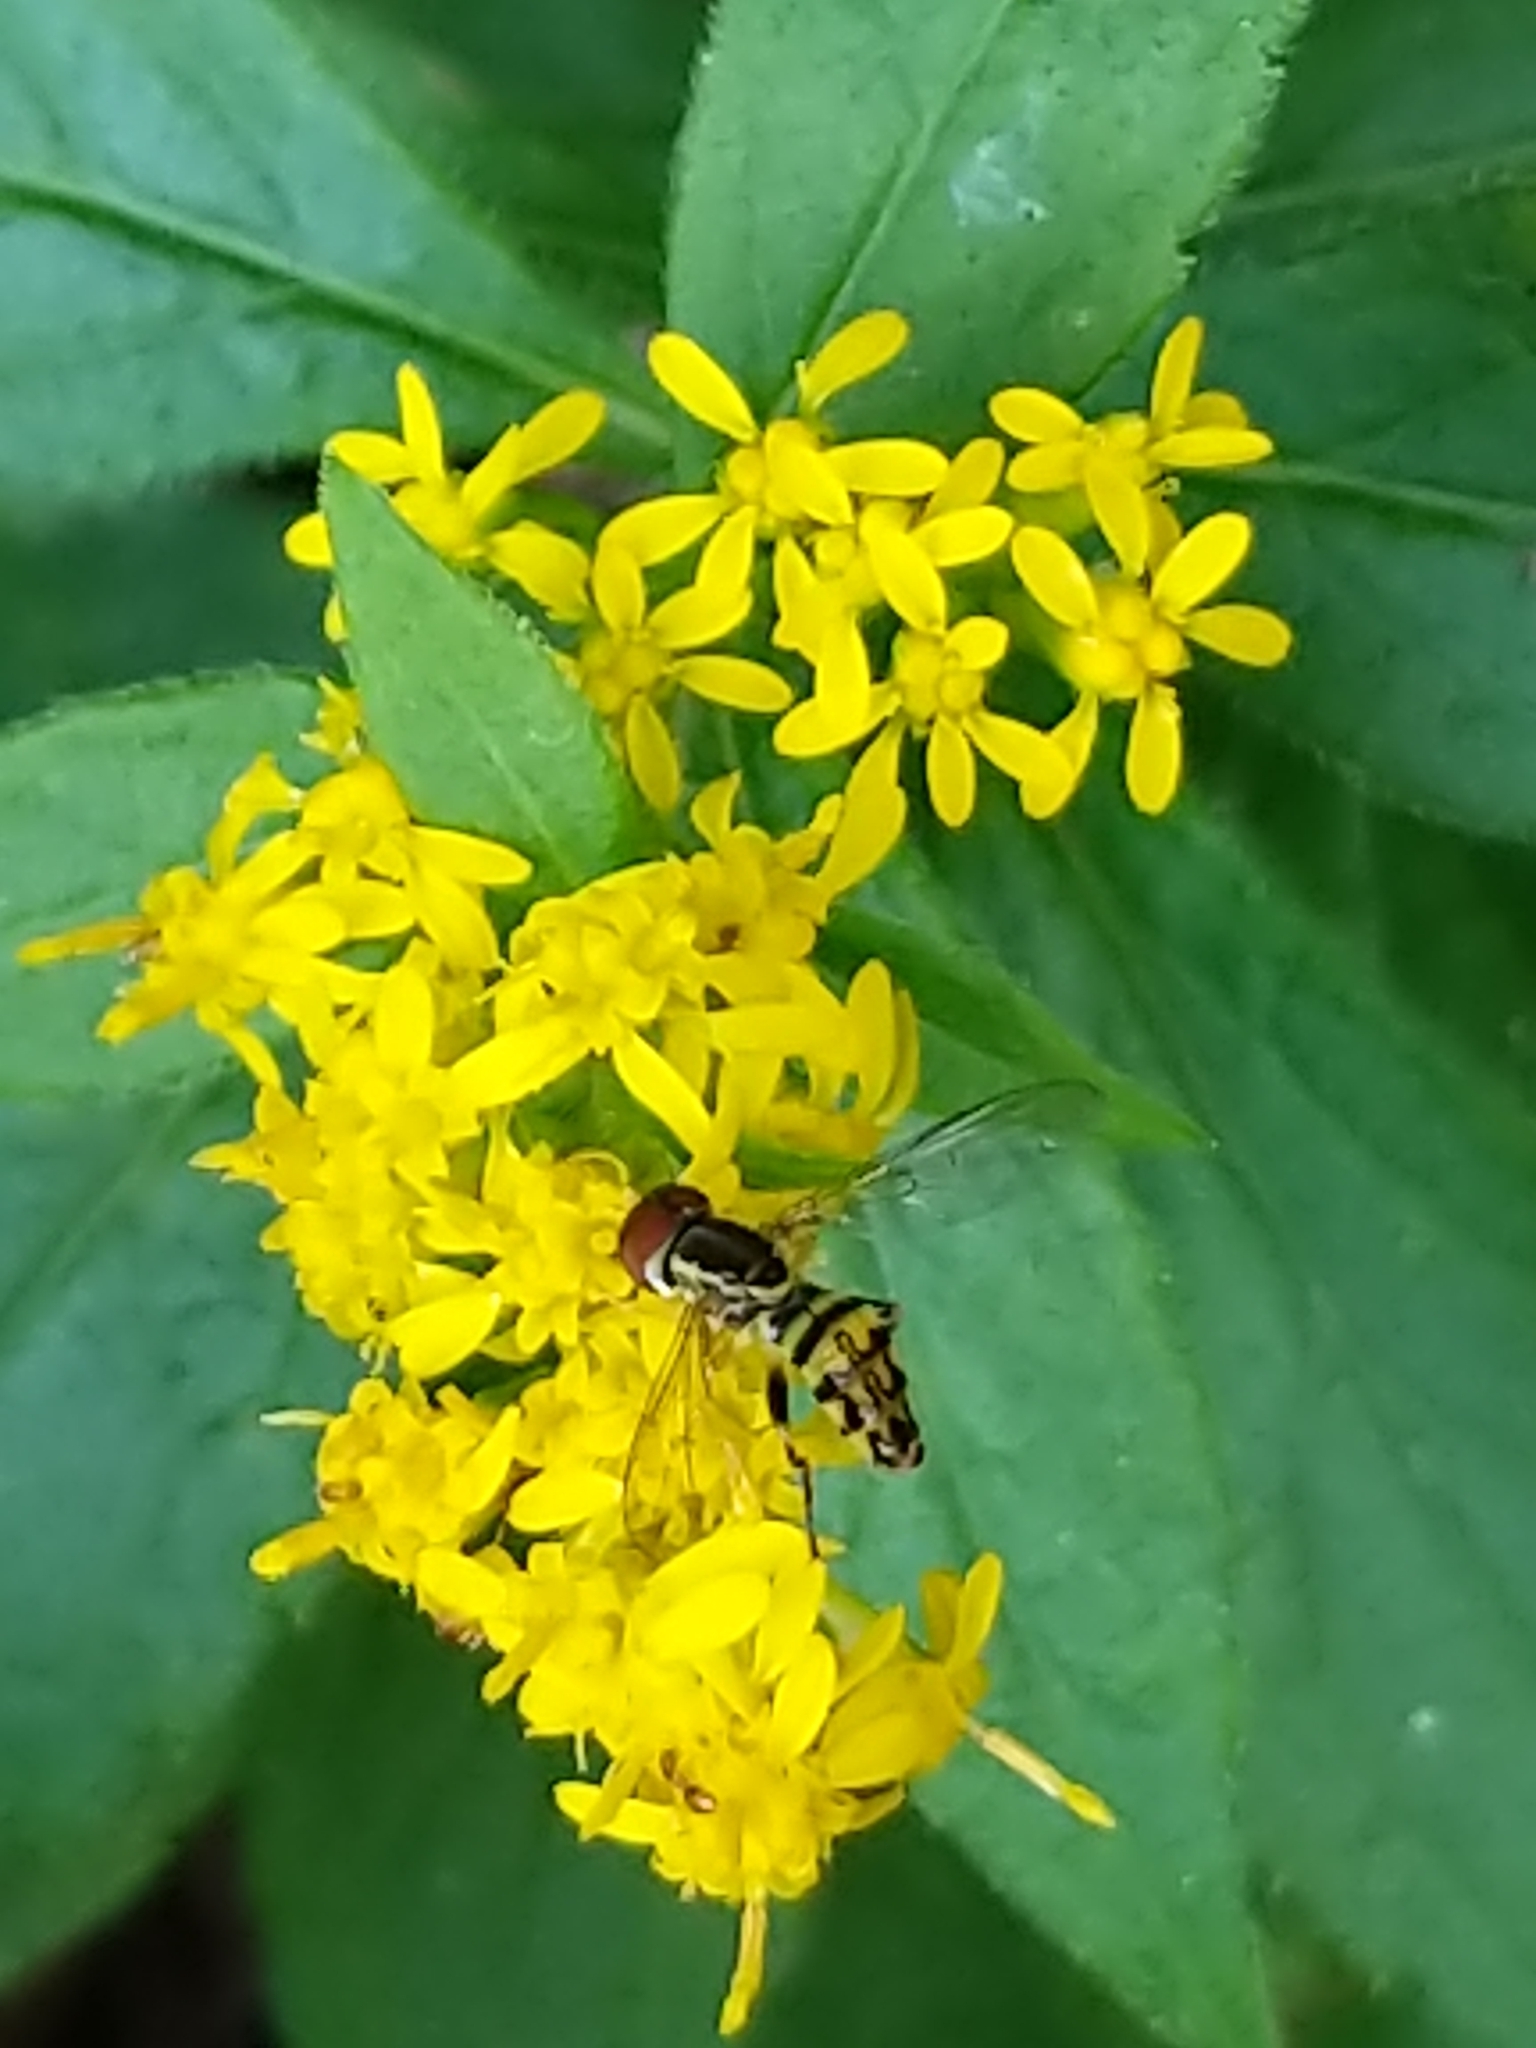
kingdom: Animalia
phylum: Arthropoda
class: Insecta
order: Diptera
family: Syrphidae
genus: Toxomerus
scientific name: Toxomerus geminatus
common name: Eastern calligrapher
